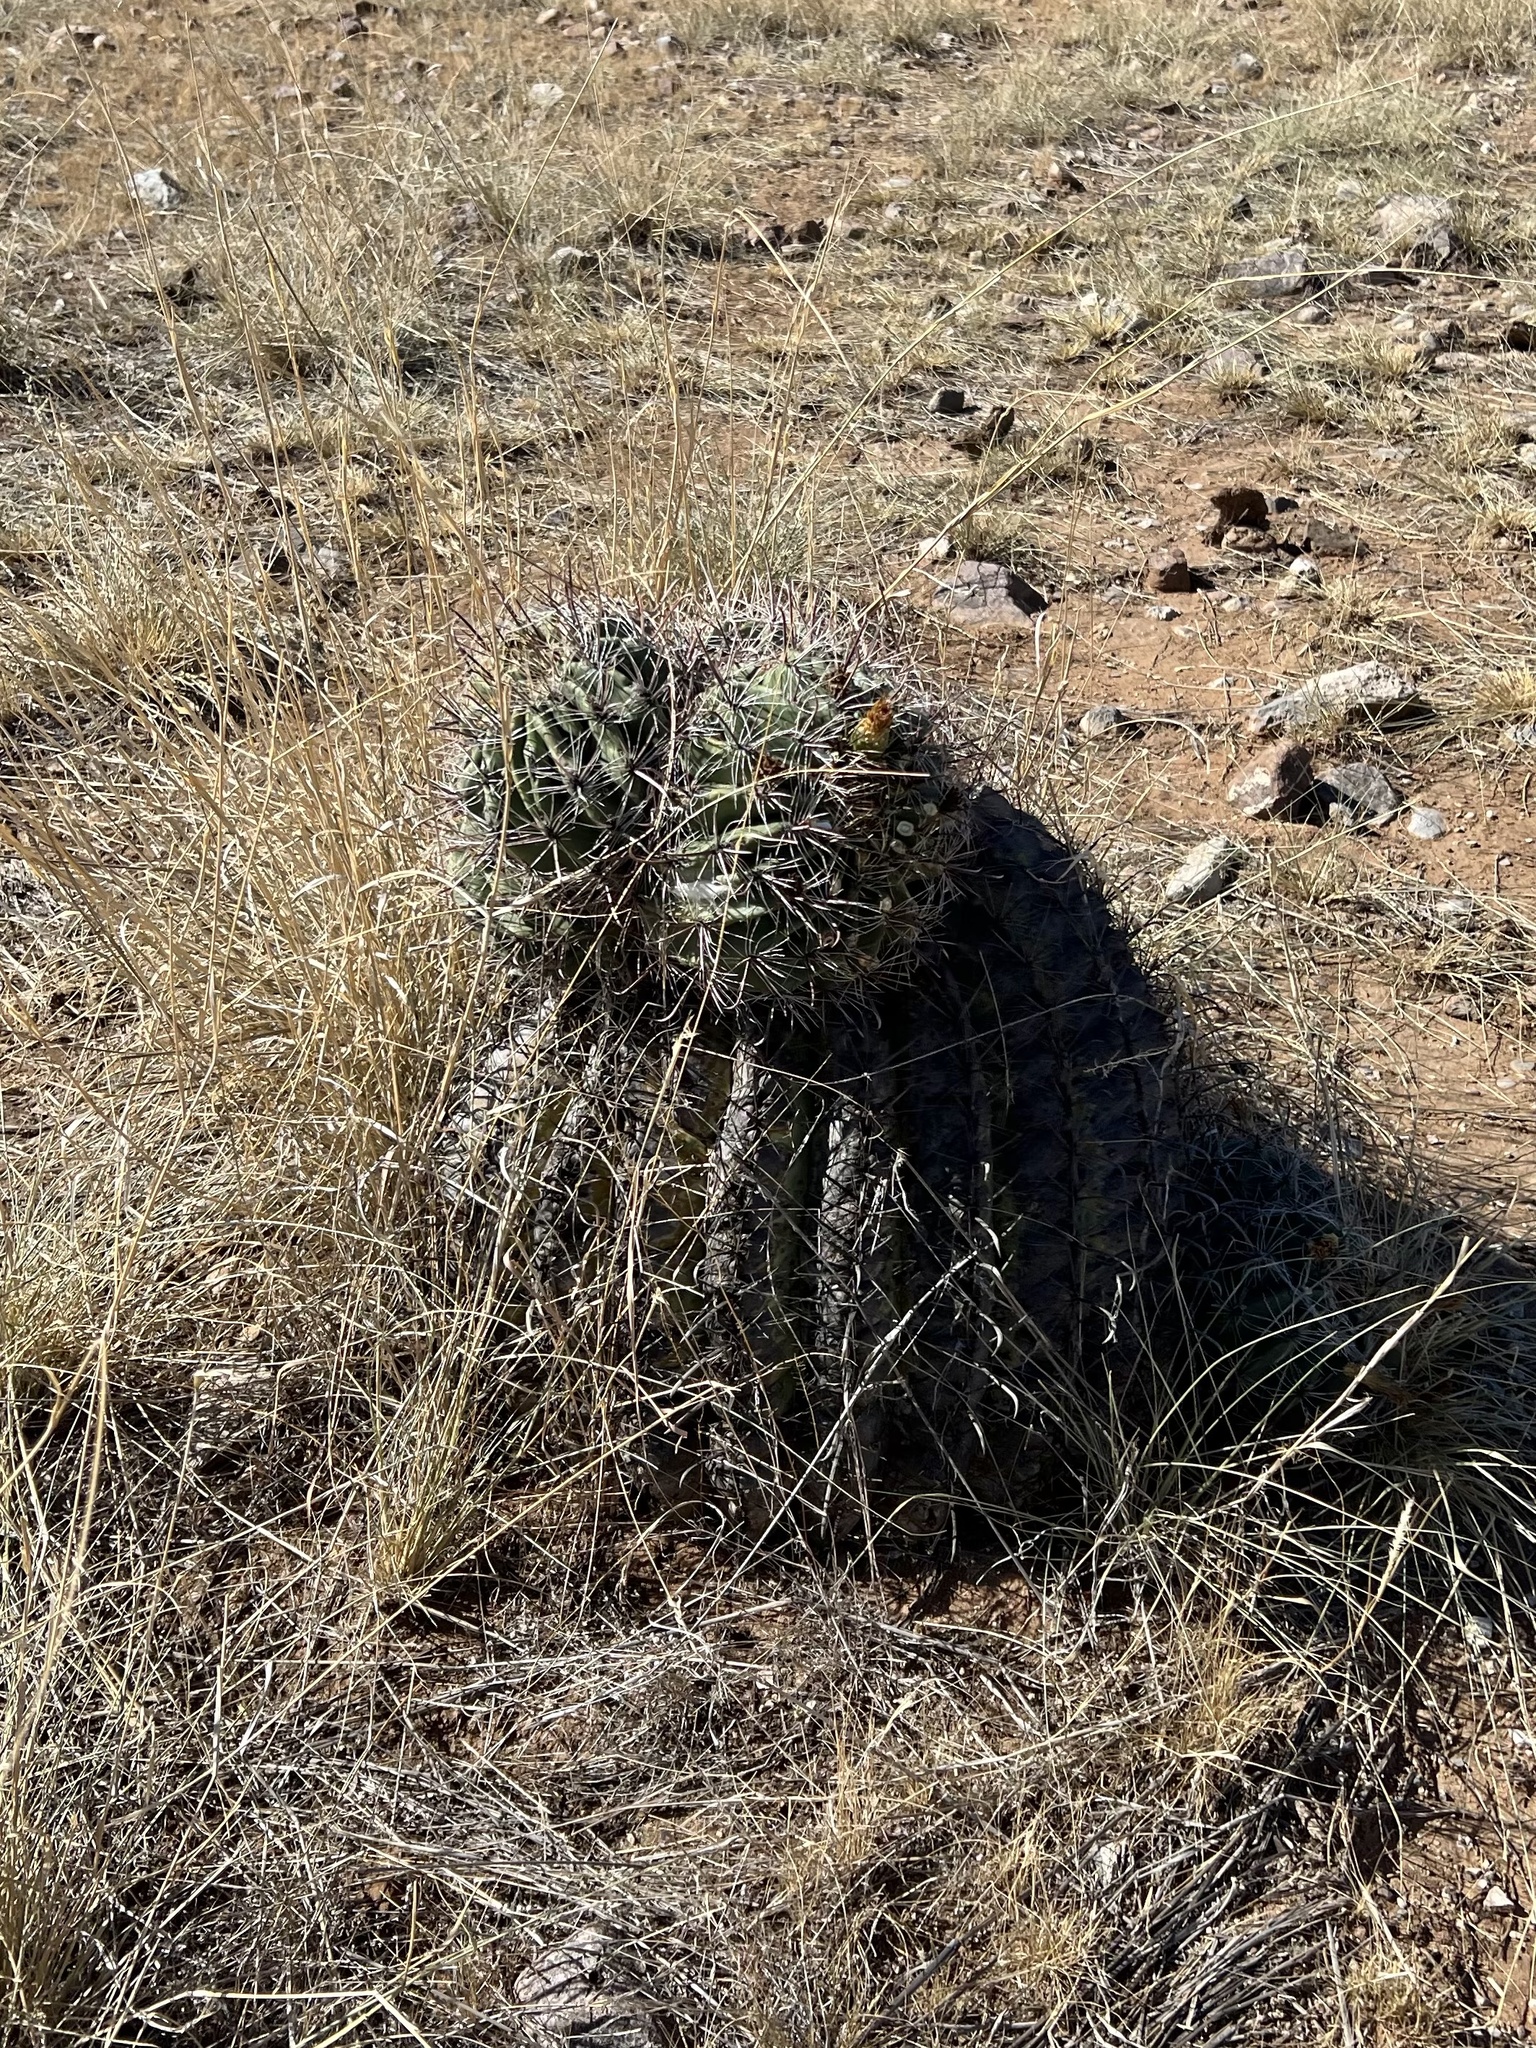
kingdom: Plantae
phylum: Tracheophyta
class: Magnoliopsida
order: Caryophyllales
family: Cactaceae
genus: Ferocactus
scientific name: Ferocactus wislizeni
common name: Candy barrel cactus
